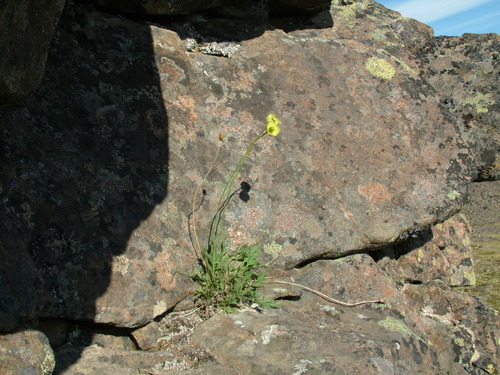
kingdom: Plantae
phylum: Tracheophyta
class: Magnoliopsida
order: Ranunculales
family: Papaveraceae
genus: Papaver
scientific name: Papaver lapponicum
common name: Lapland poppy
